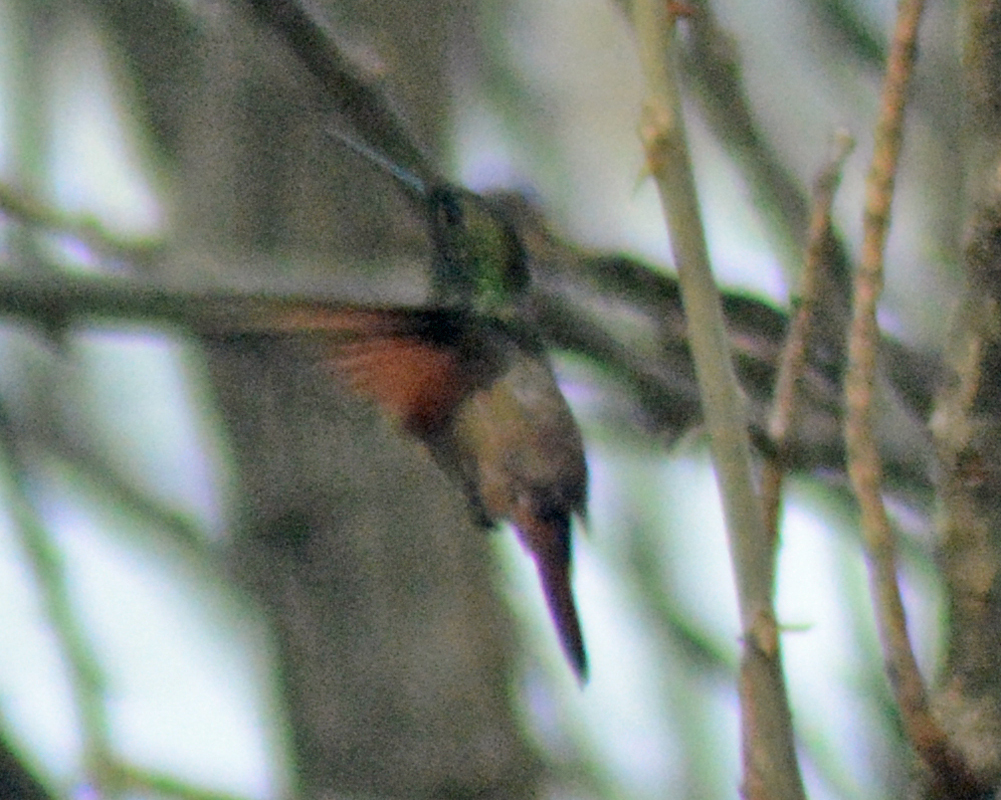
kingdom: Animalia
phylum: Chordata
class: Aves
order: Apodiformes
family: Trochilidae
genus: Saucerottia
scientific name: Saucerottia beryllina
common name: Berylline hummingbird
